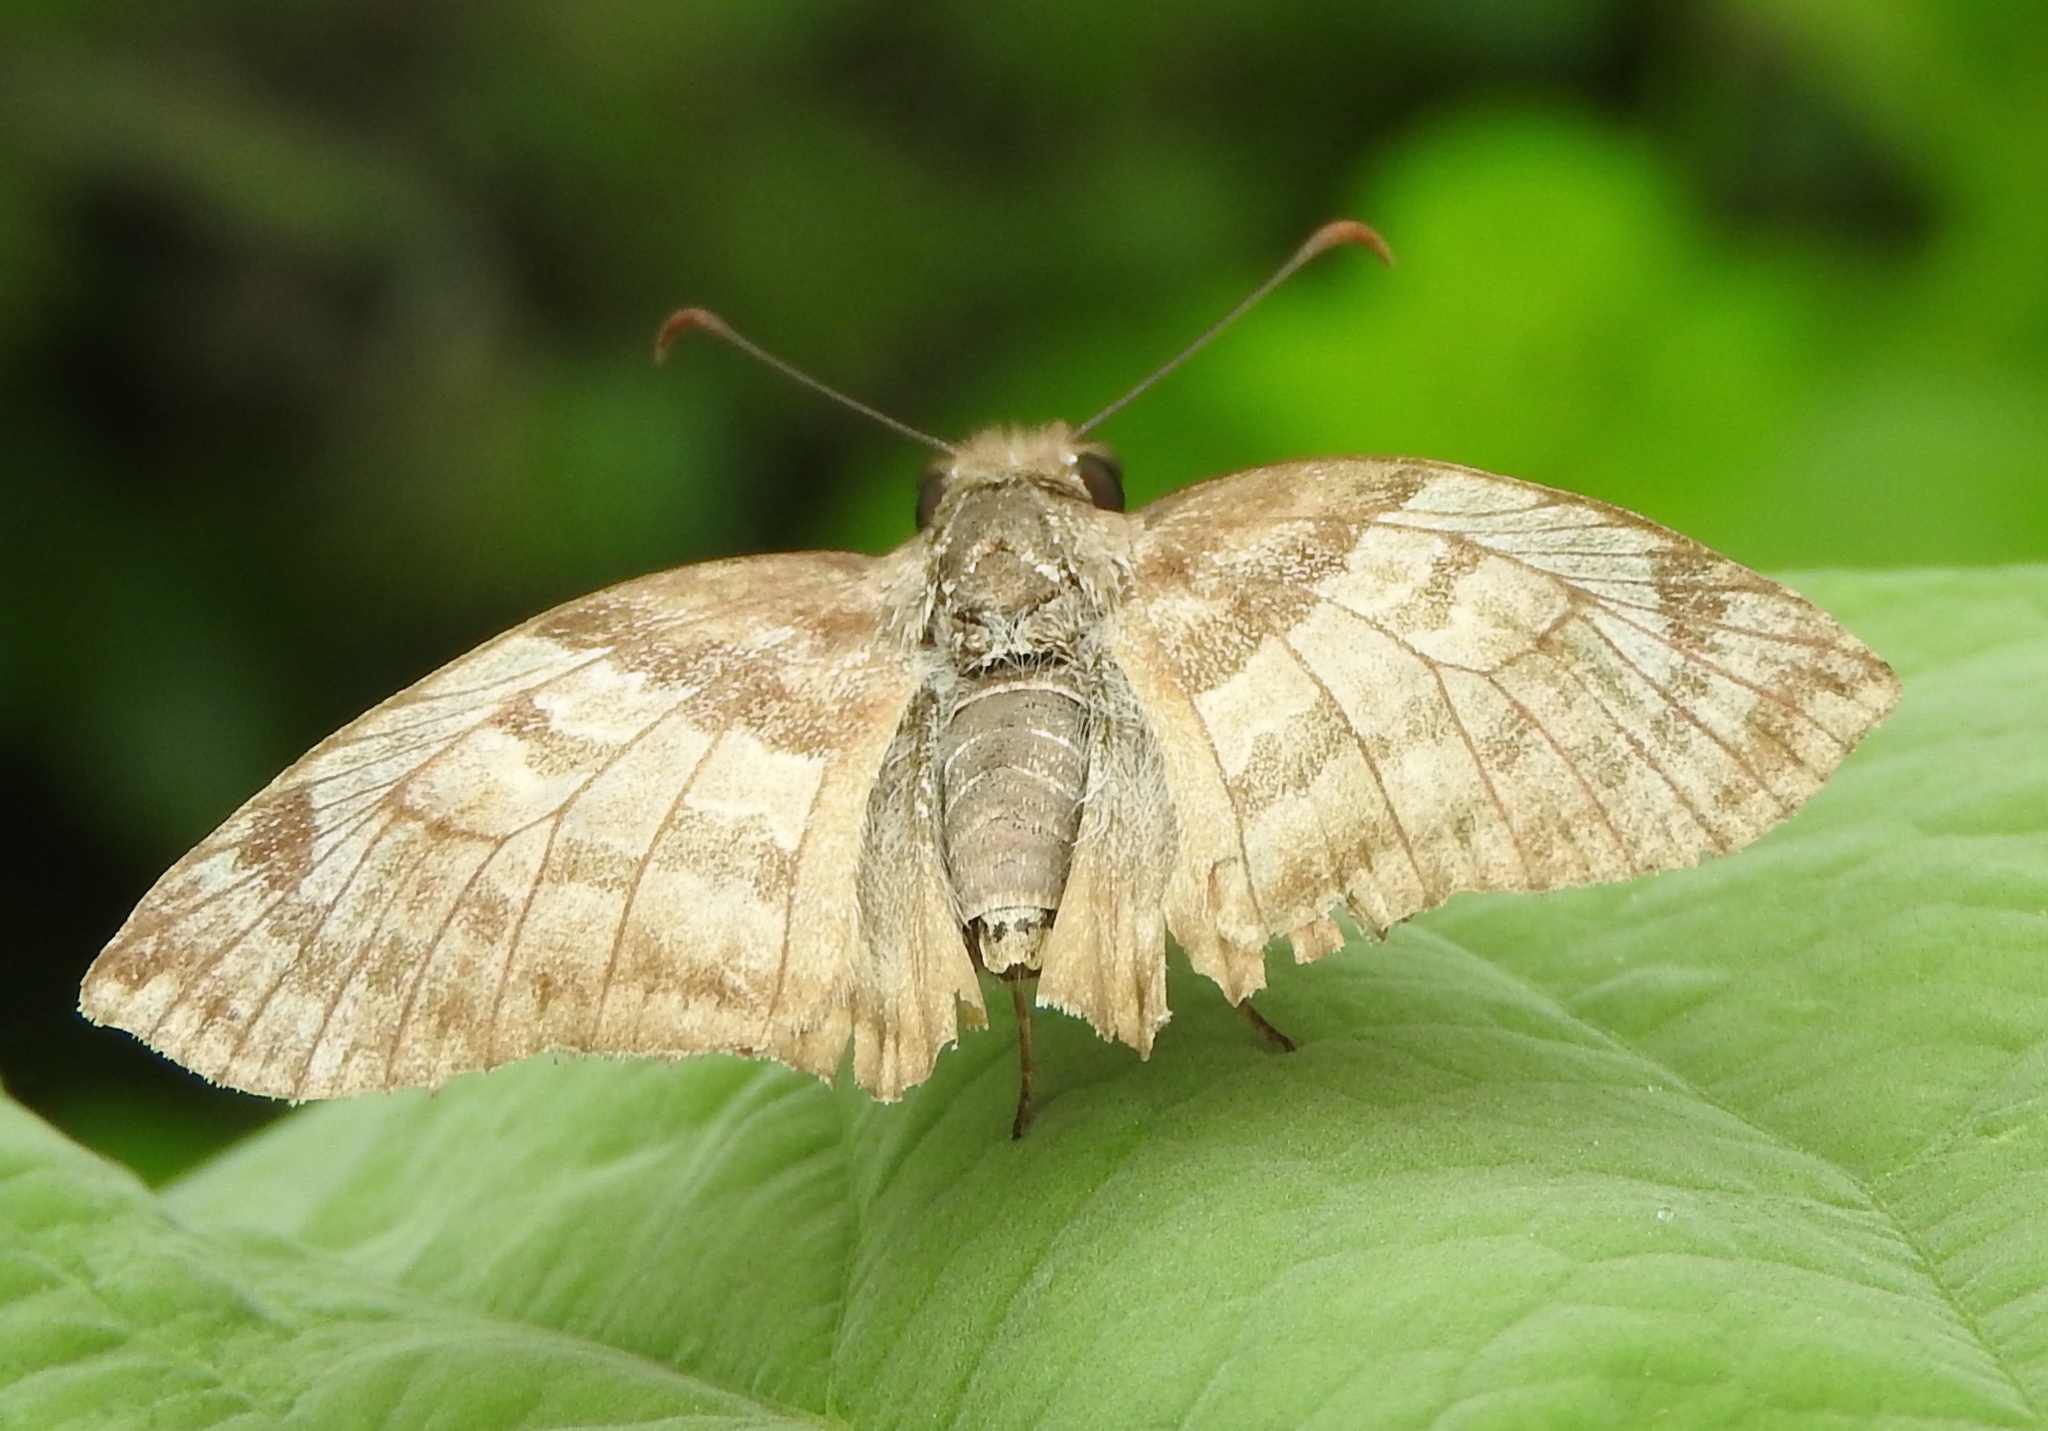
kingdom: Animalia
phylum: Arthropoda
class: Insecta
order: Lepidoptera
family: Hesperiidae
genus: Mylon
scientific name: Mylon pelopidas
